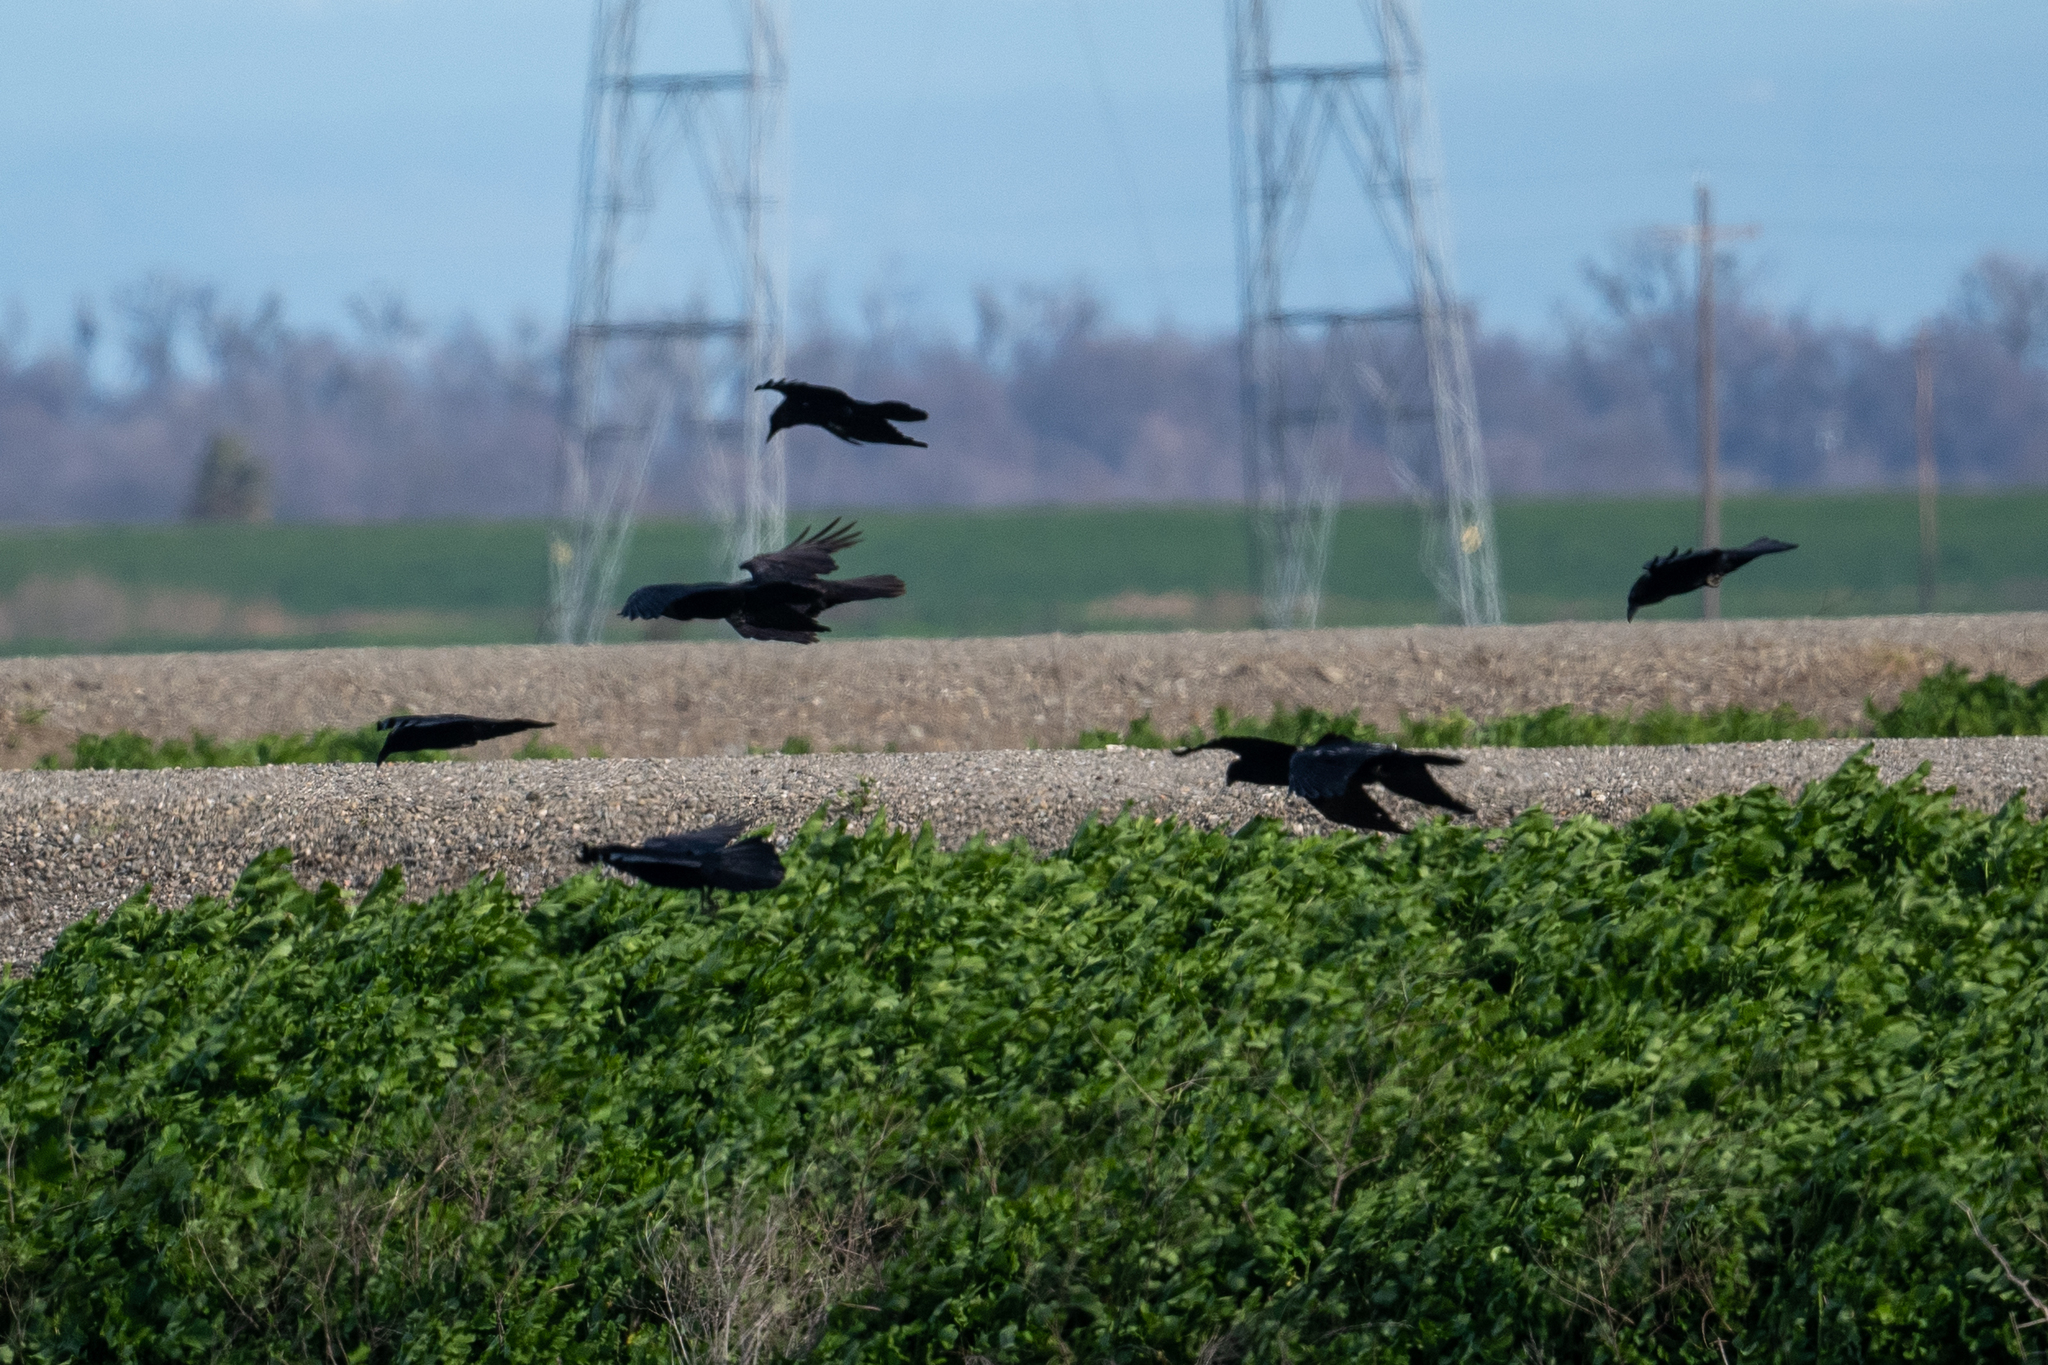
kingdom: Animalia
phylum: Chordata
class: Aves
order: Passeriformes
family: Corvidae
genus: Corvus
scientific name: Corvus corax
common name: Common raven
